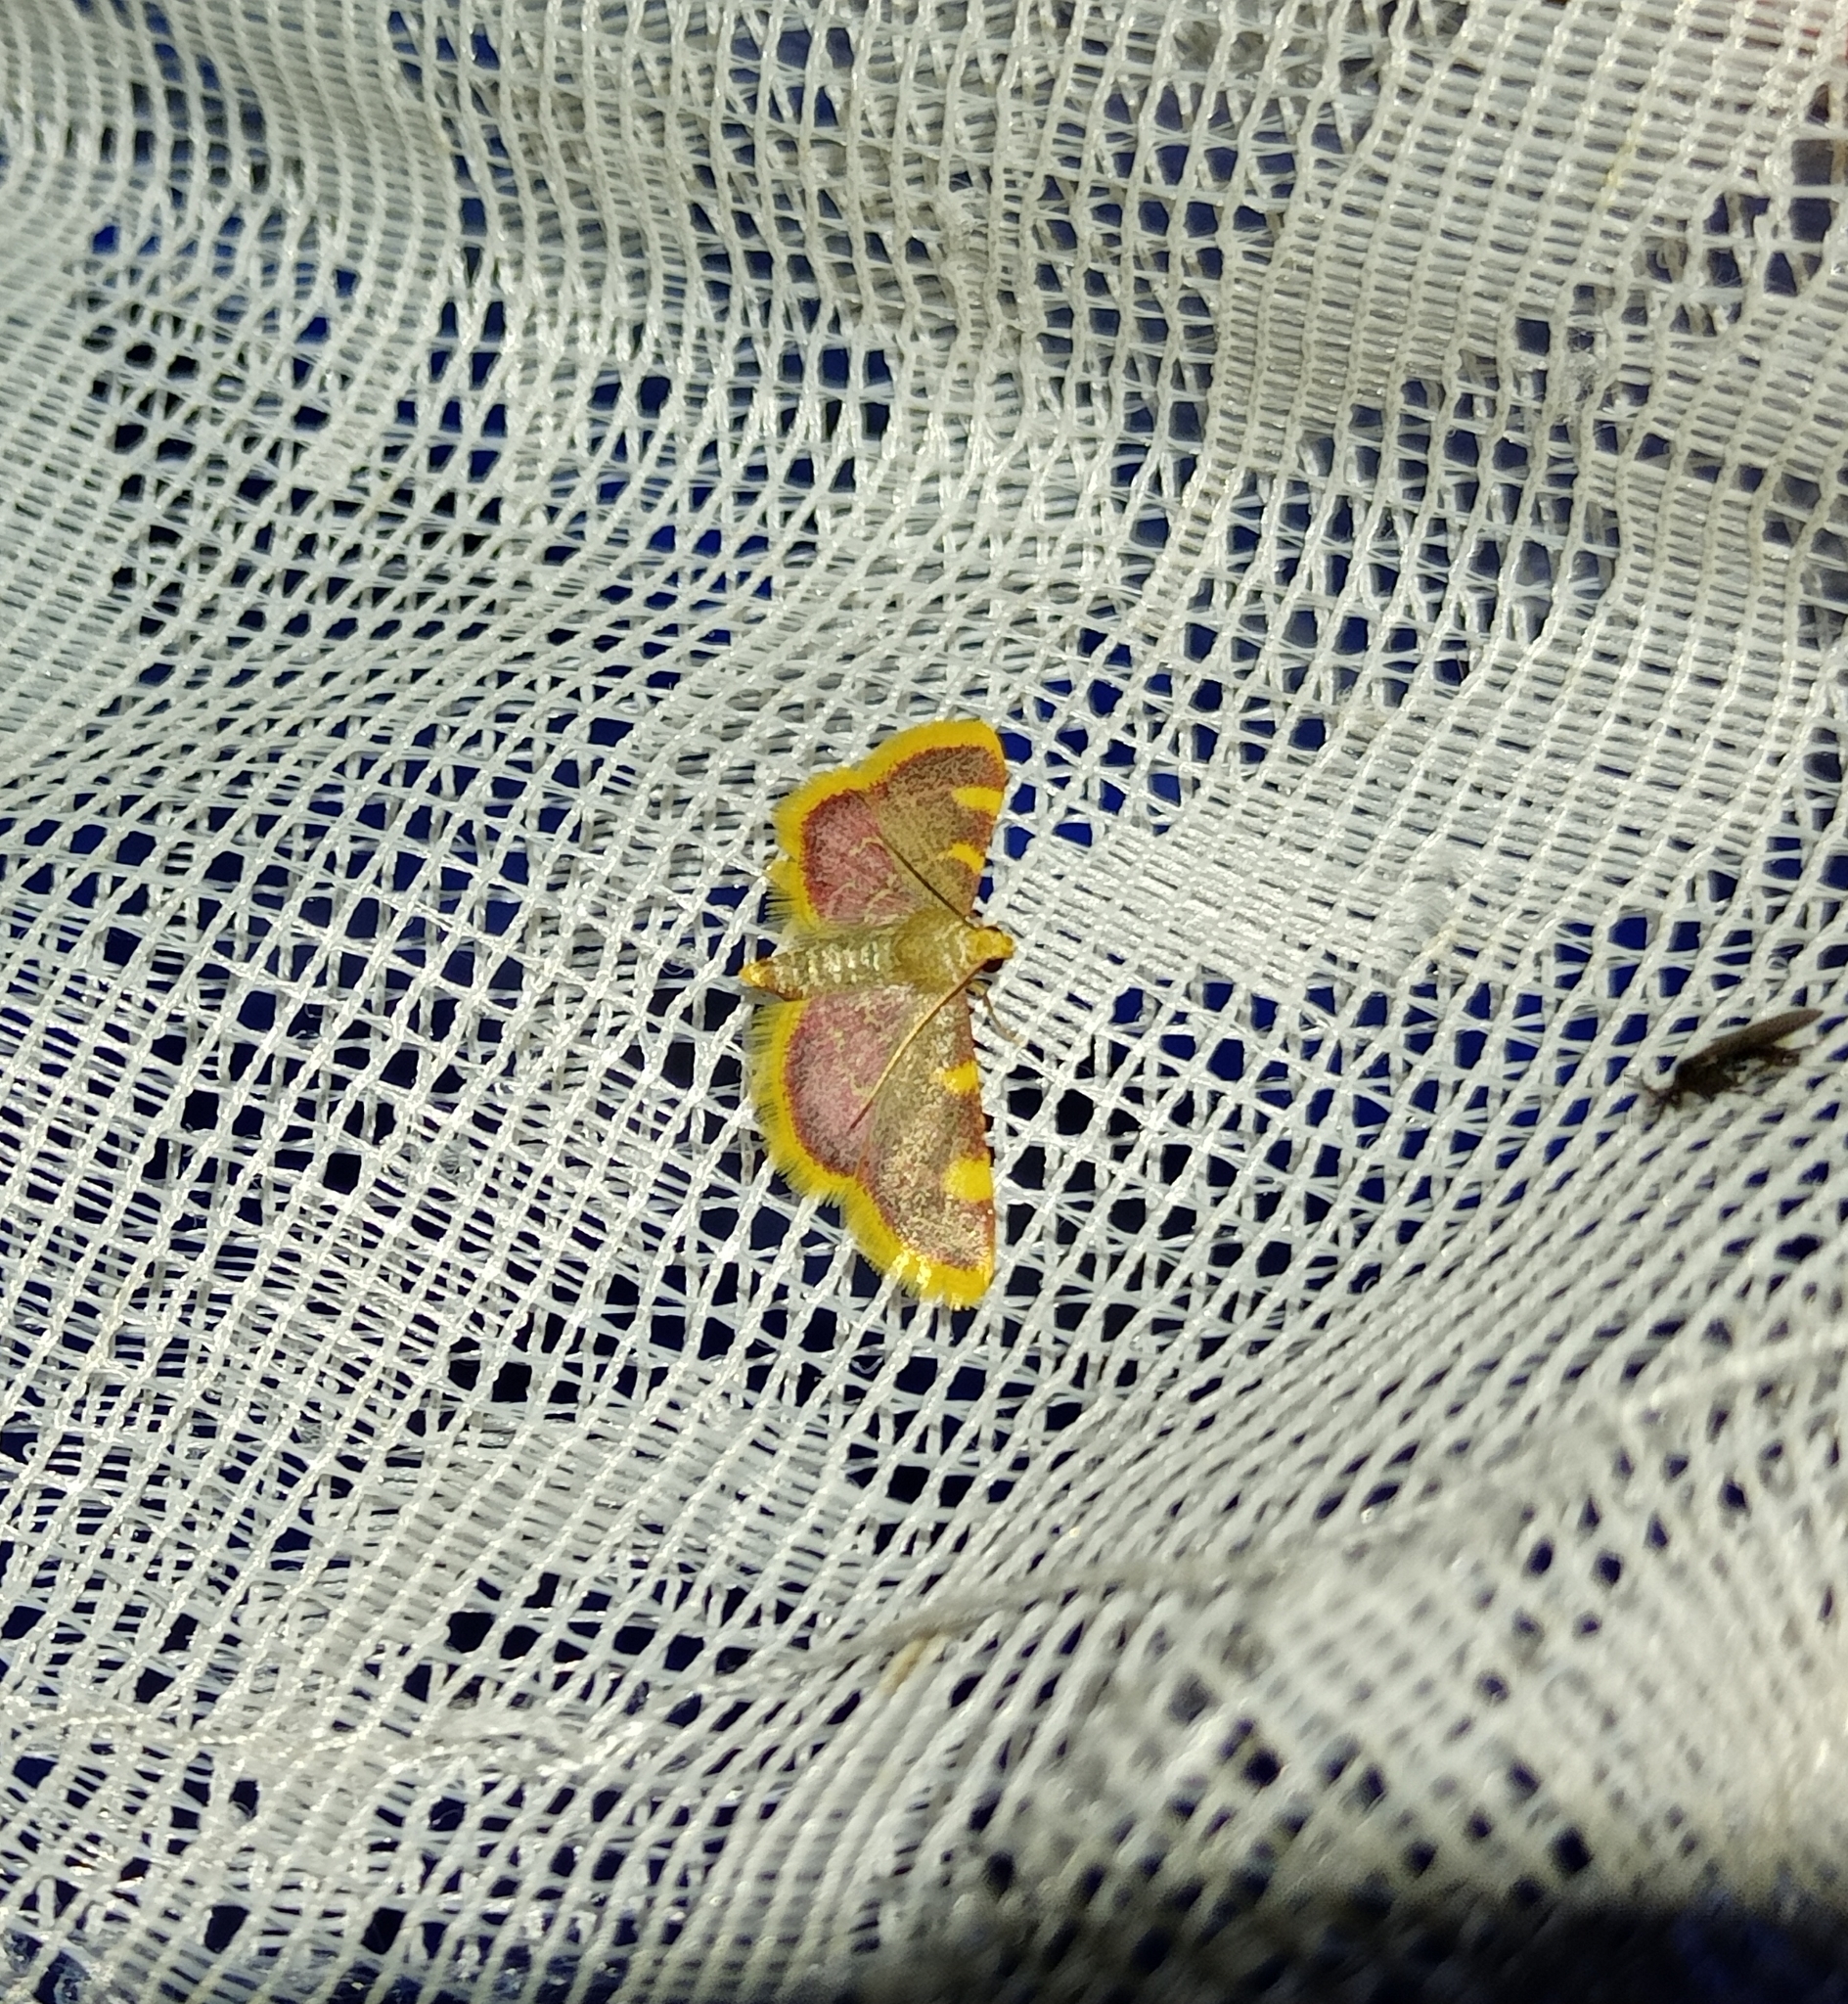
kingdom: Animalia
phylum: Arthropoda
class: Insecta
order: Lepidoptera
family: Pyralidae
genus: Hypsopygia
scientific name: Hypsopygia costalis
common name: Gold triangle
